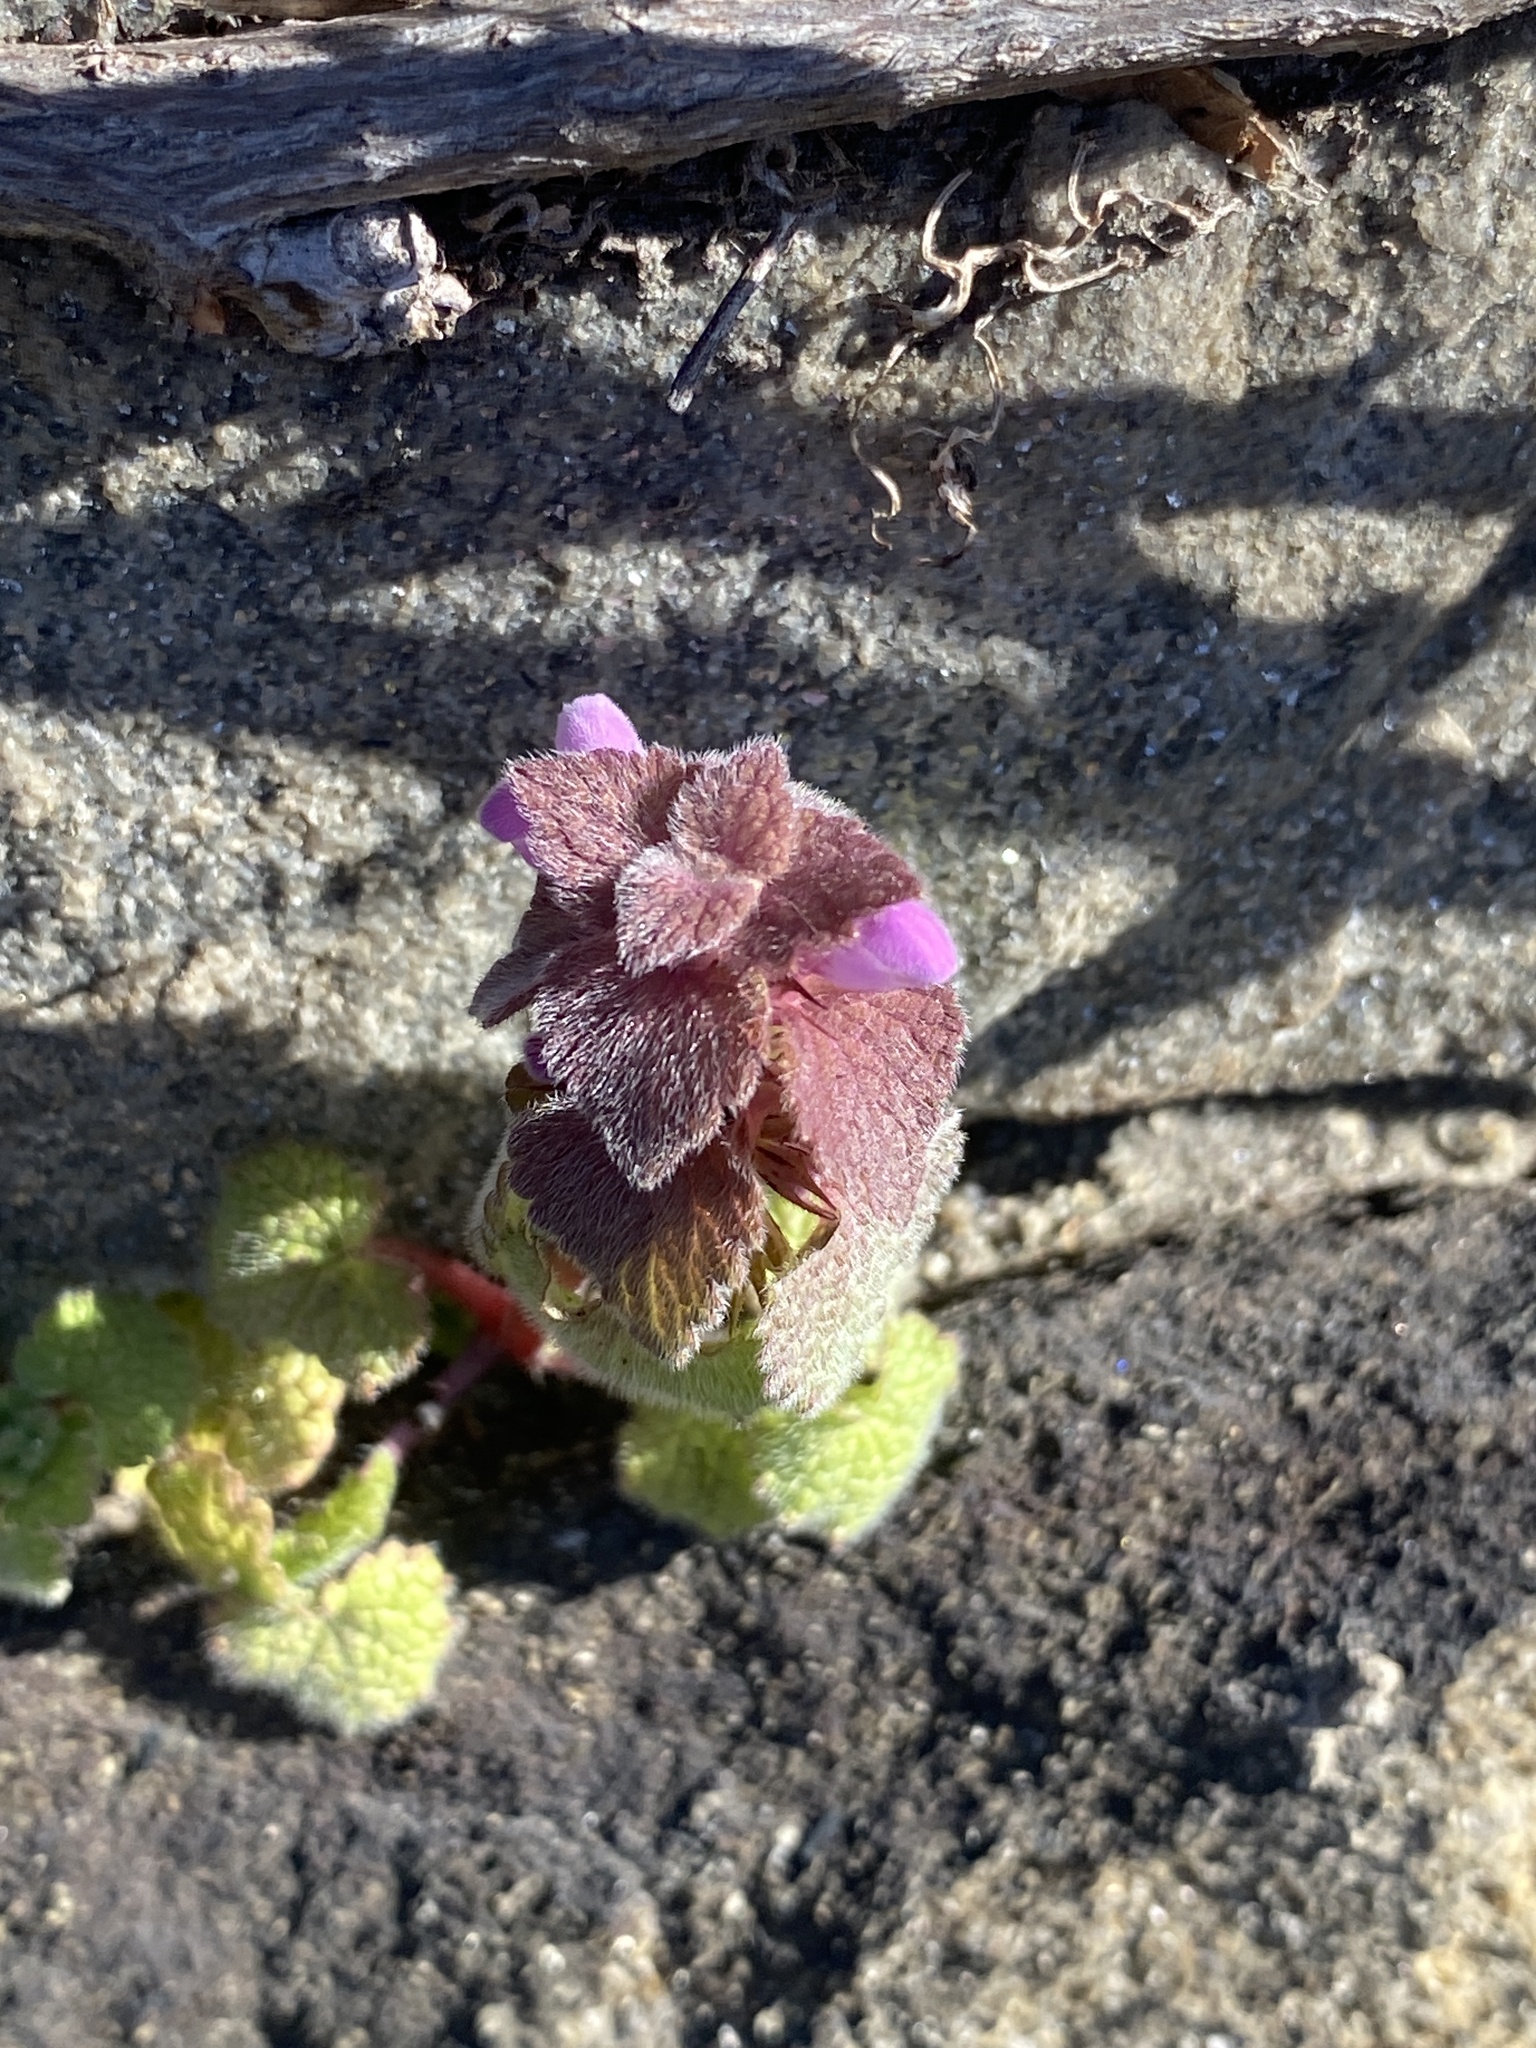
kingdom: Plantae
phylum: Tracheophyta
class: Magnoliopsida
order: Lamiales
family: Lamiaceae
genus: Lamium
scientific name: Lamium purpureum
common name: Red dead-nettle
